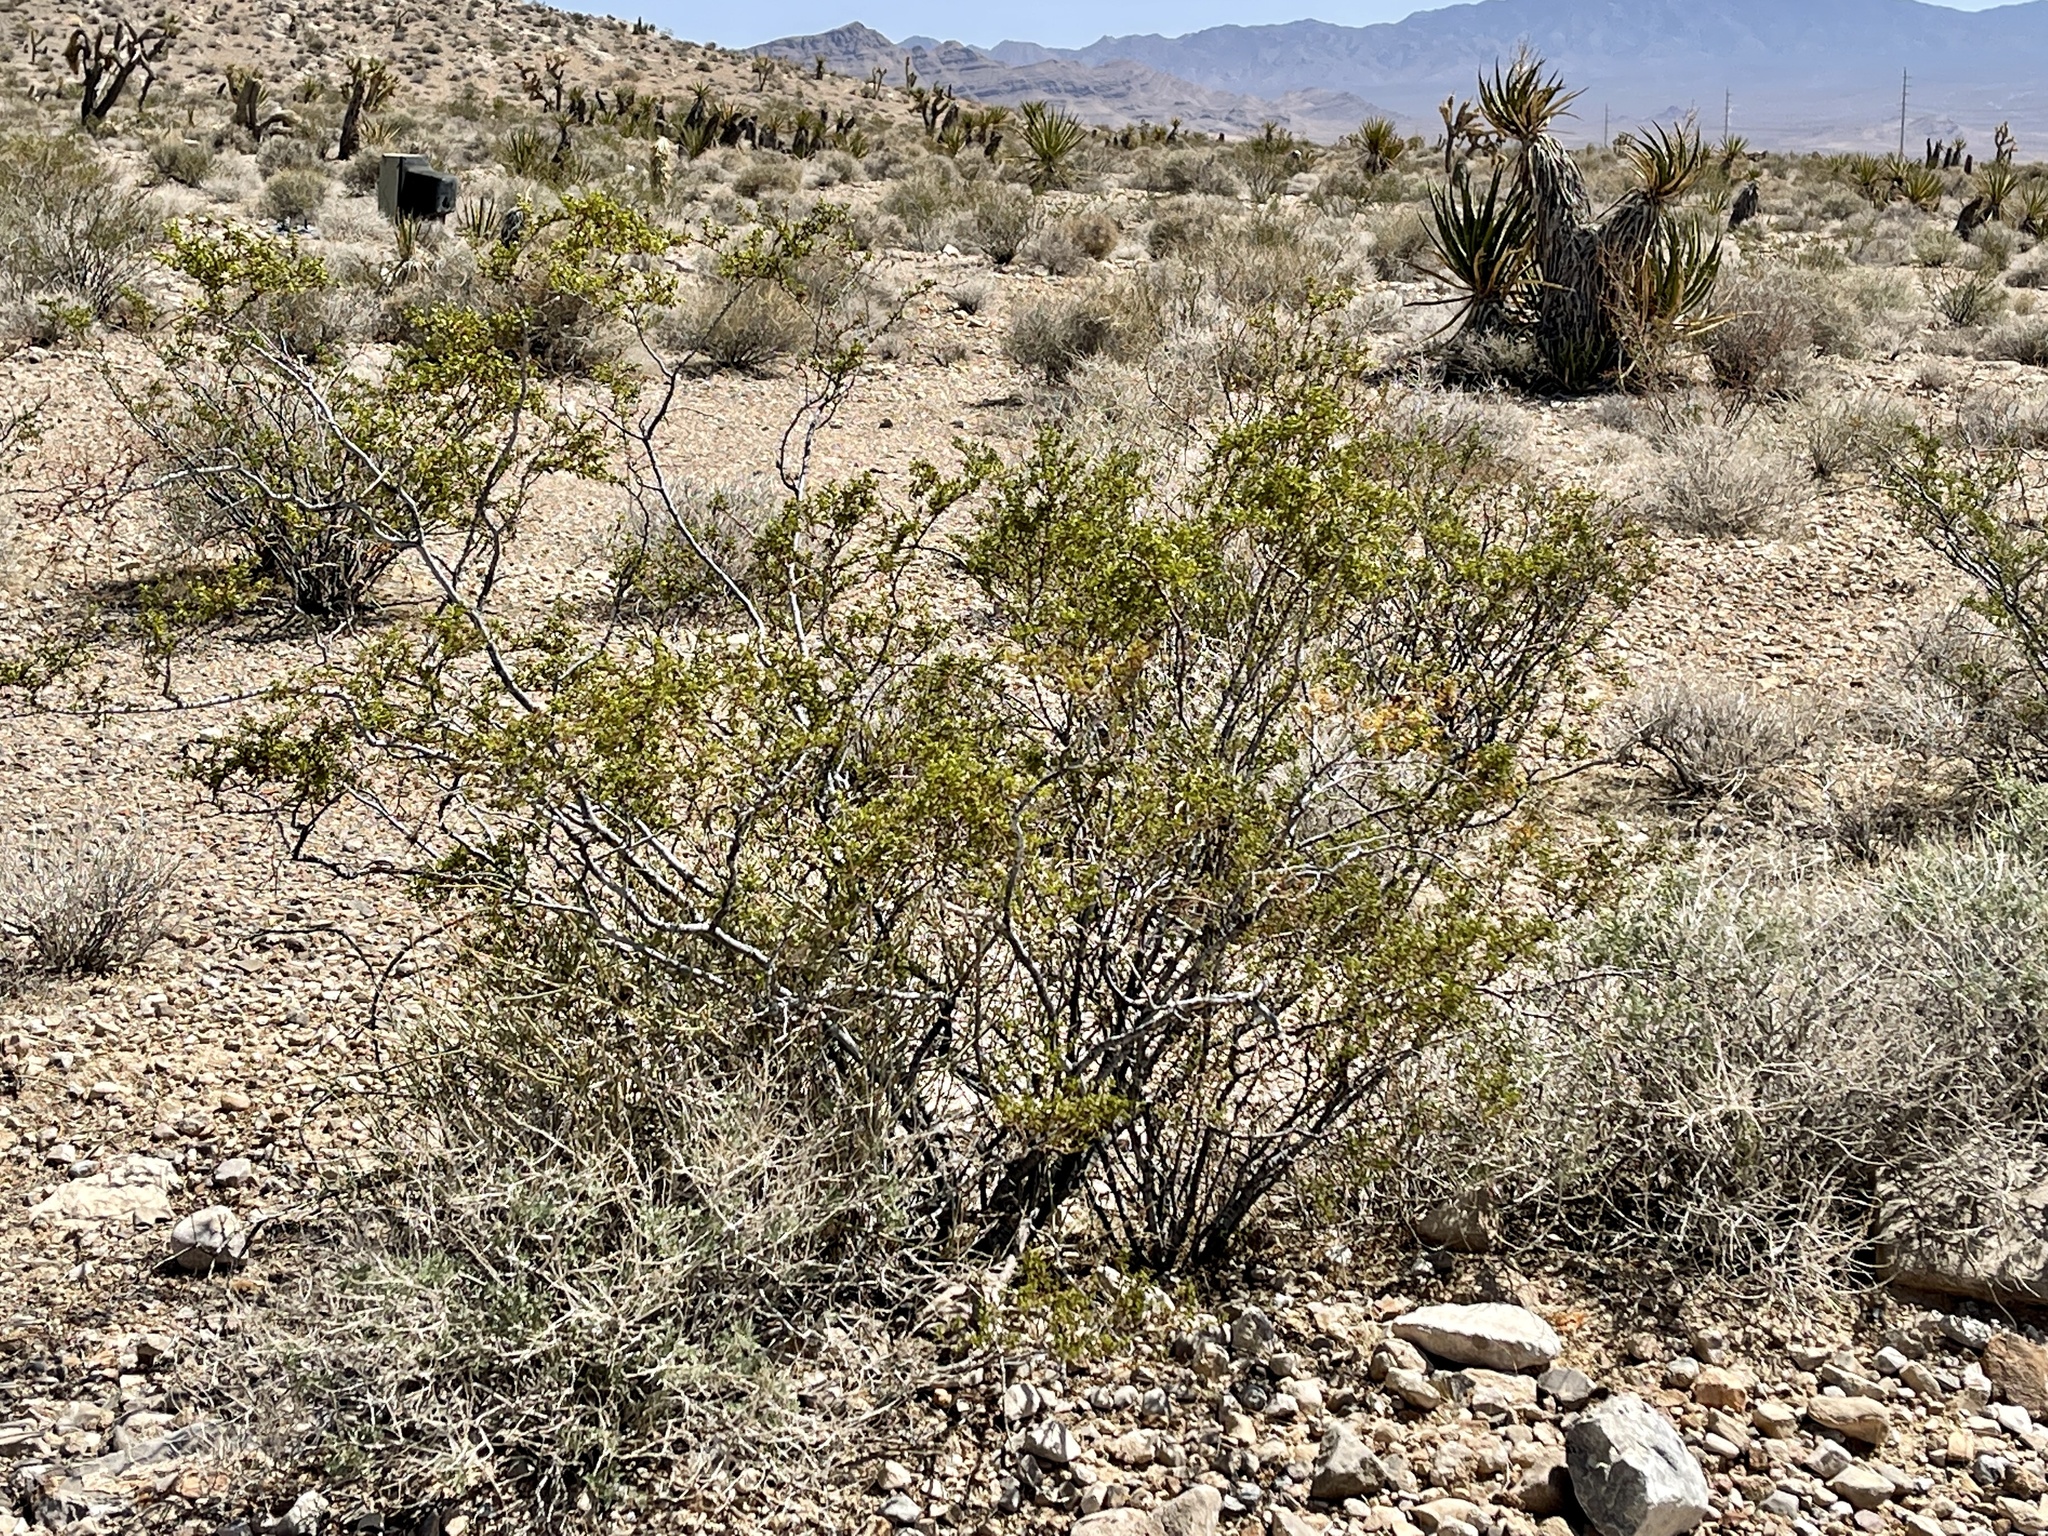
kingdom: Plantae
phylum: Tracheophyta
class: Magnoliopsida
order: Zygophyllales
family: Zygophyllaceae
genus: Larrea
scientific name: Larrea tridentata
